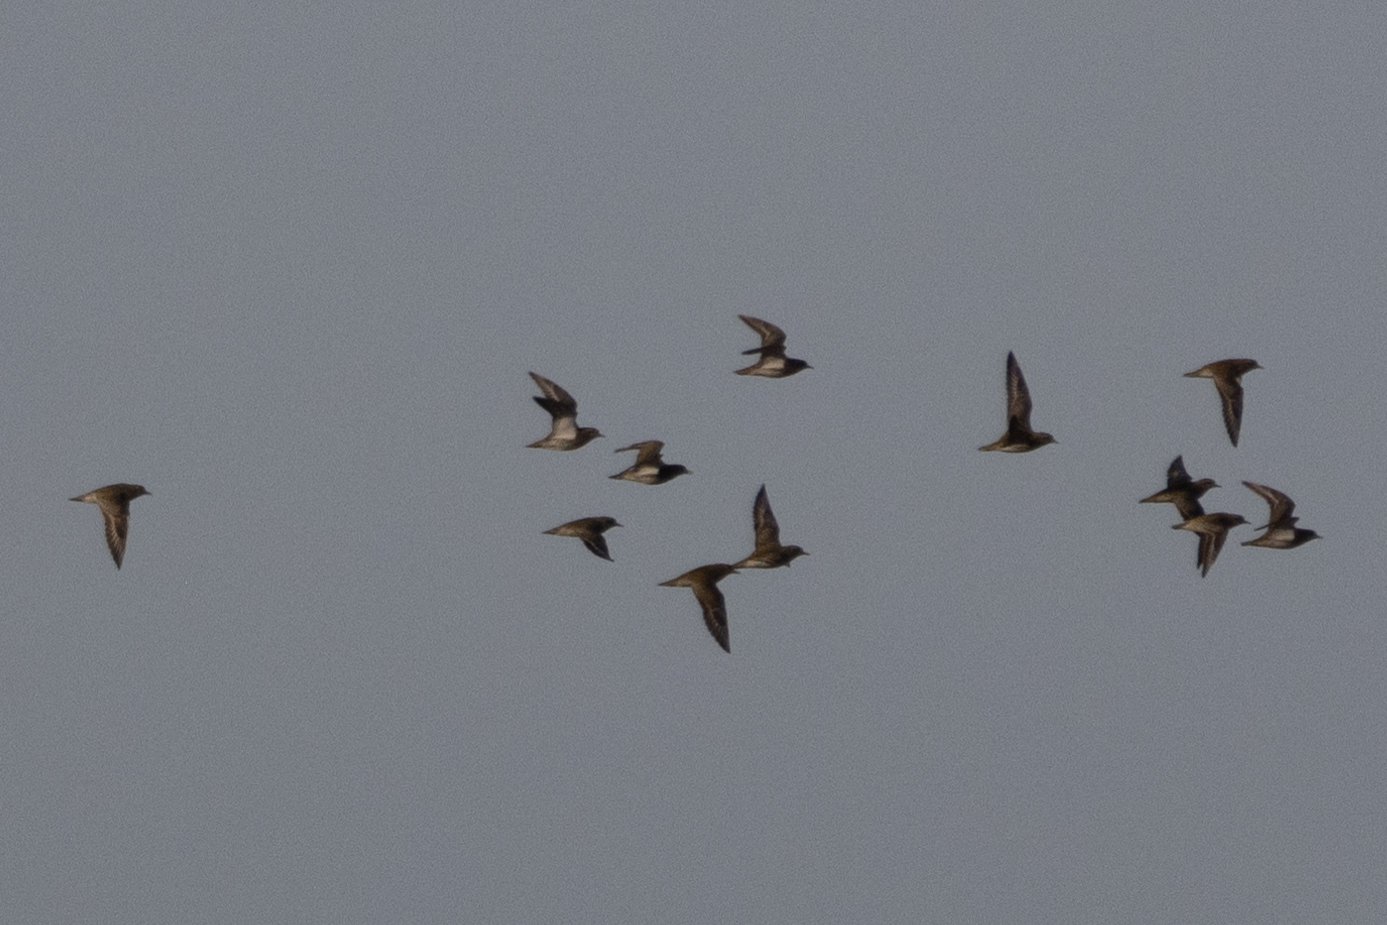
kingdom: Animalia
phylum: Chordata
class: Aves
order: Charadriiformes
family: Charadriidae
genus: Pluvialis
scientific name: Pluvialis apricaria
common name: European golden plover
